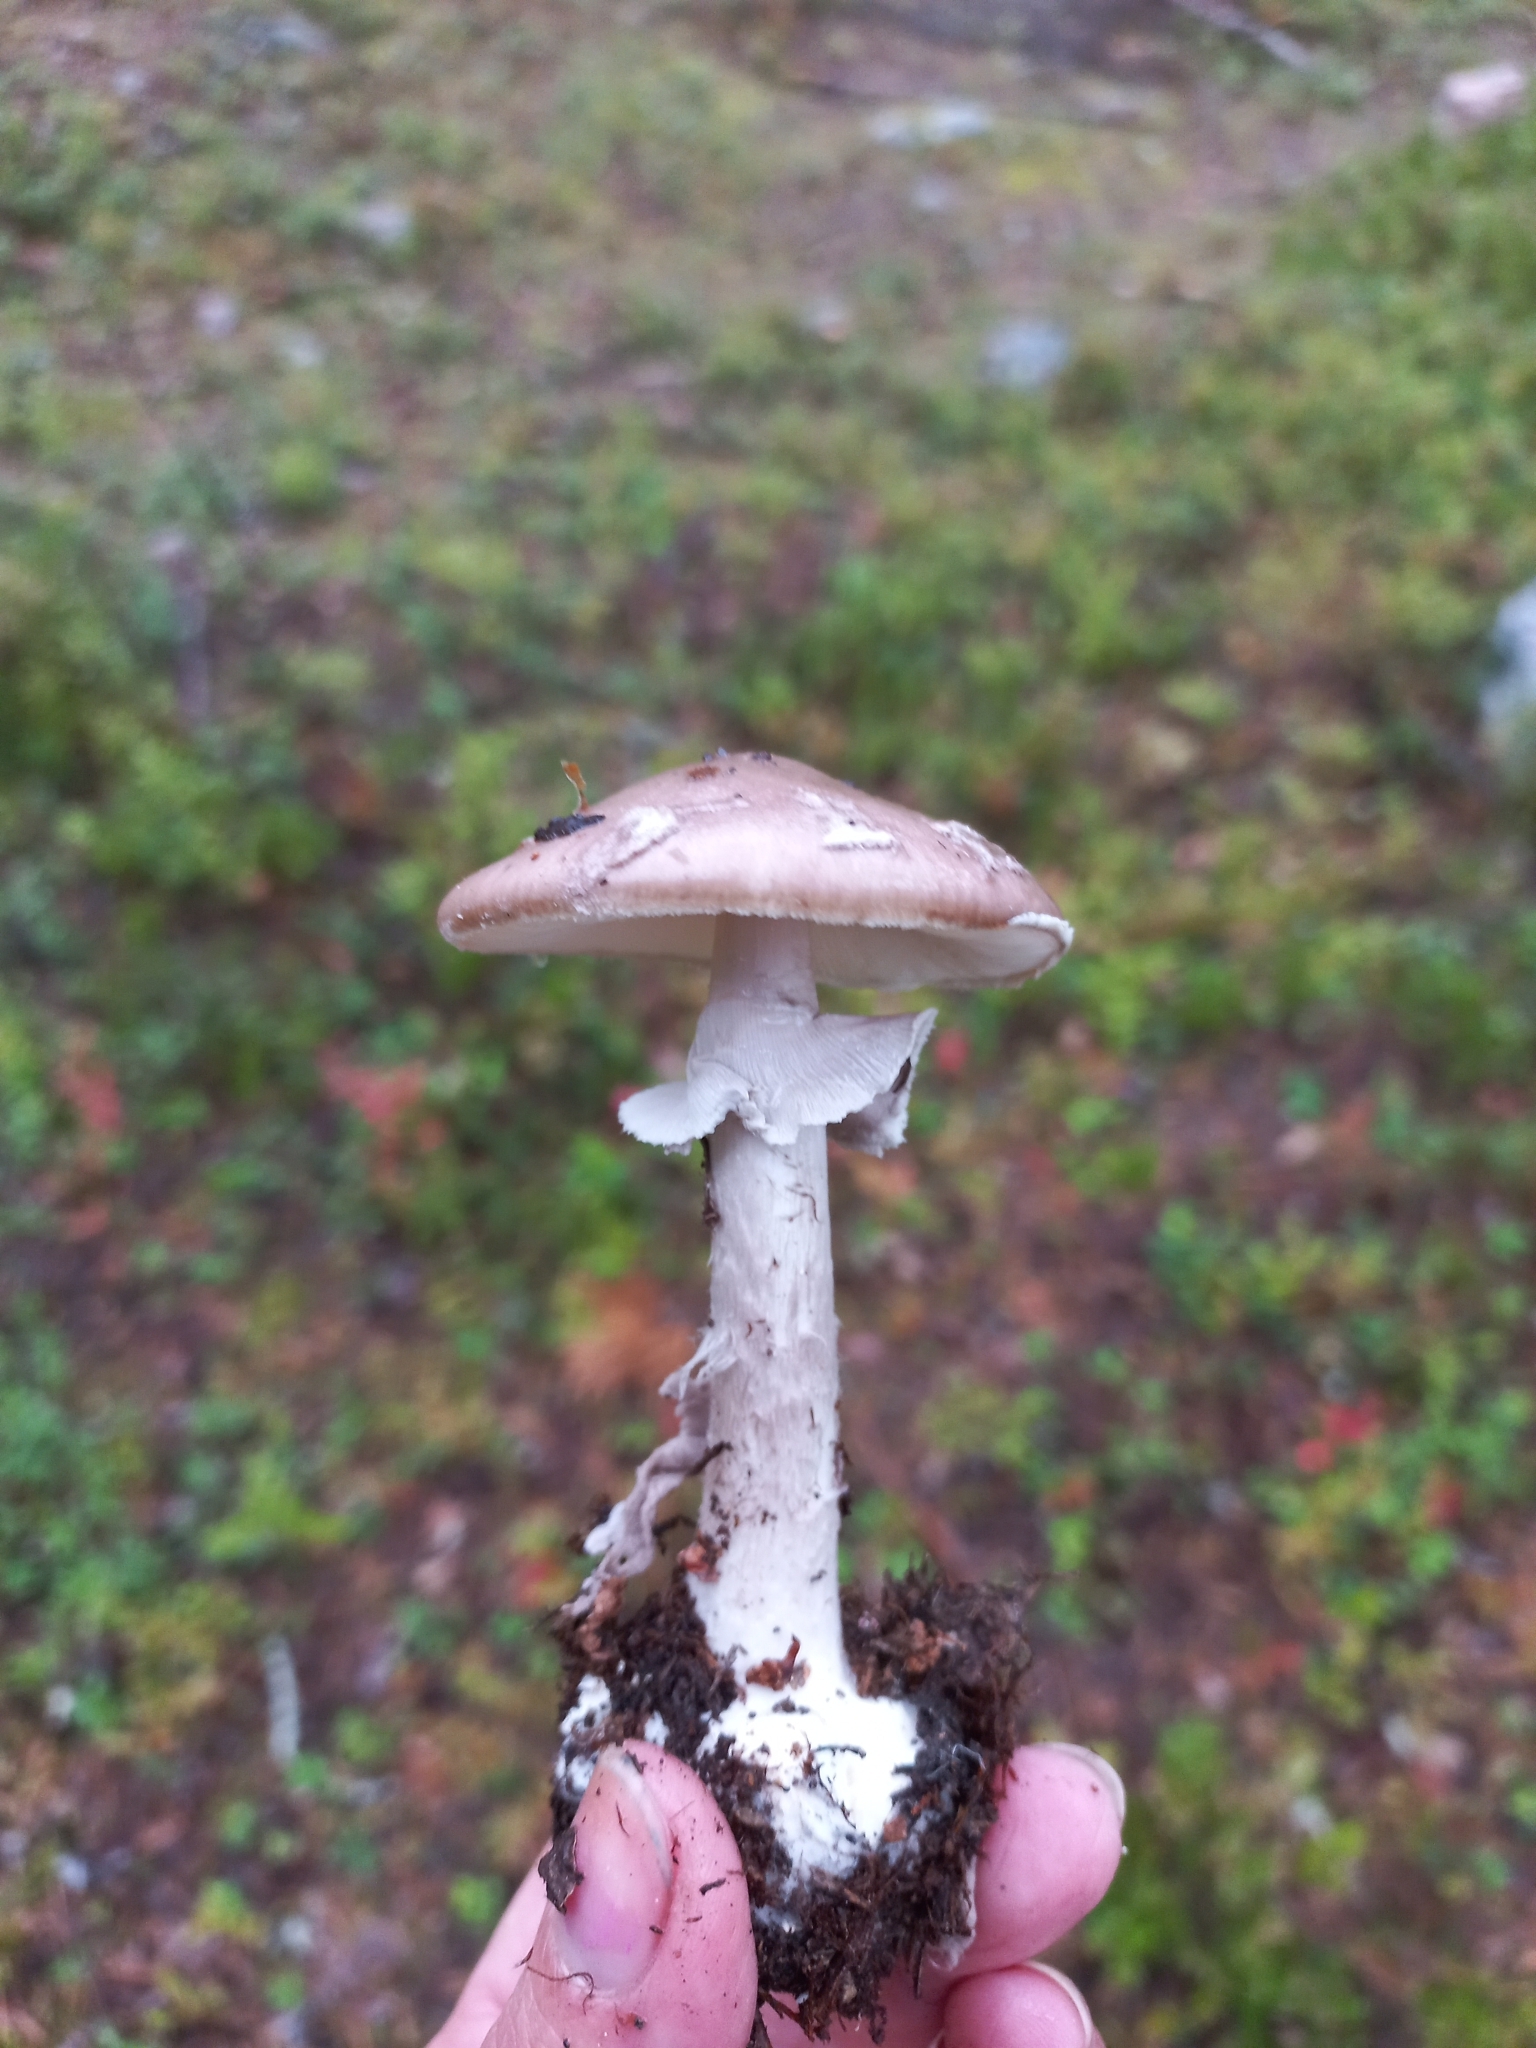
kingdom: Fungi
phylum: Basidiomycota
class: Agaricomycetes
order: Agaricales
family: Amanitaceae
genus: Amanita
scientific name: Amanita porphyria
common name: Grey veiled amanita
